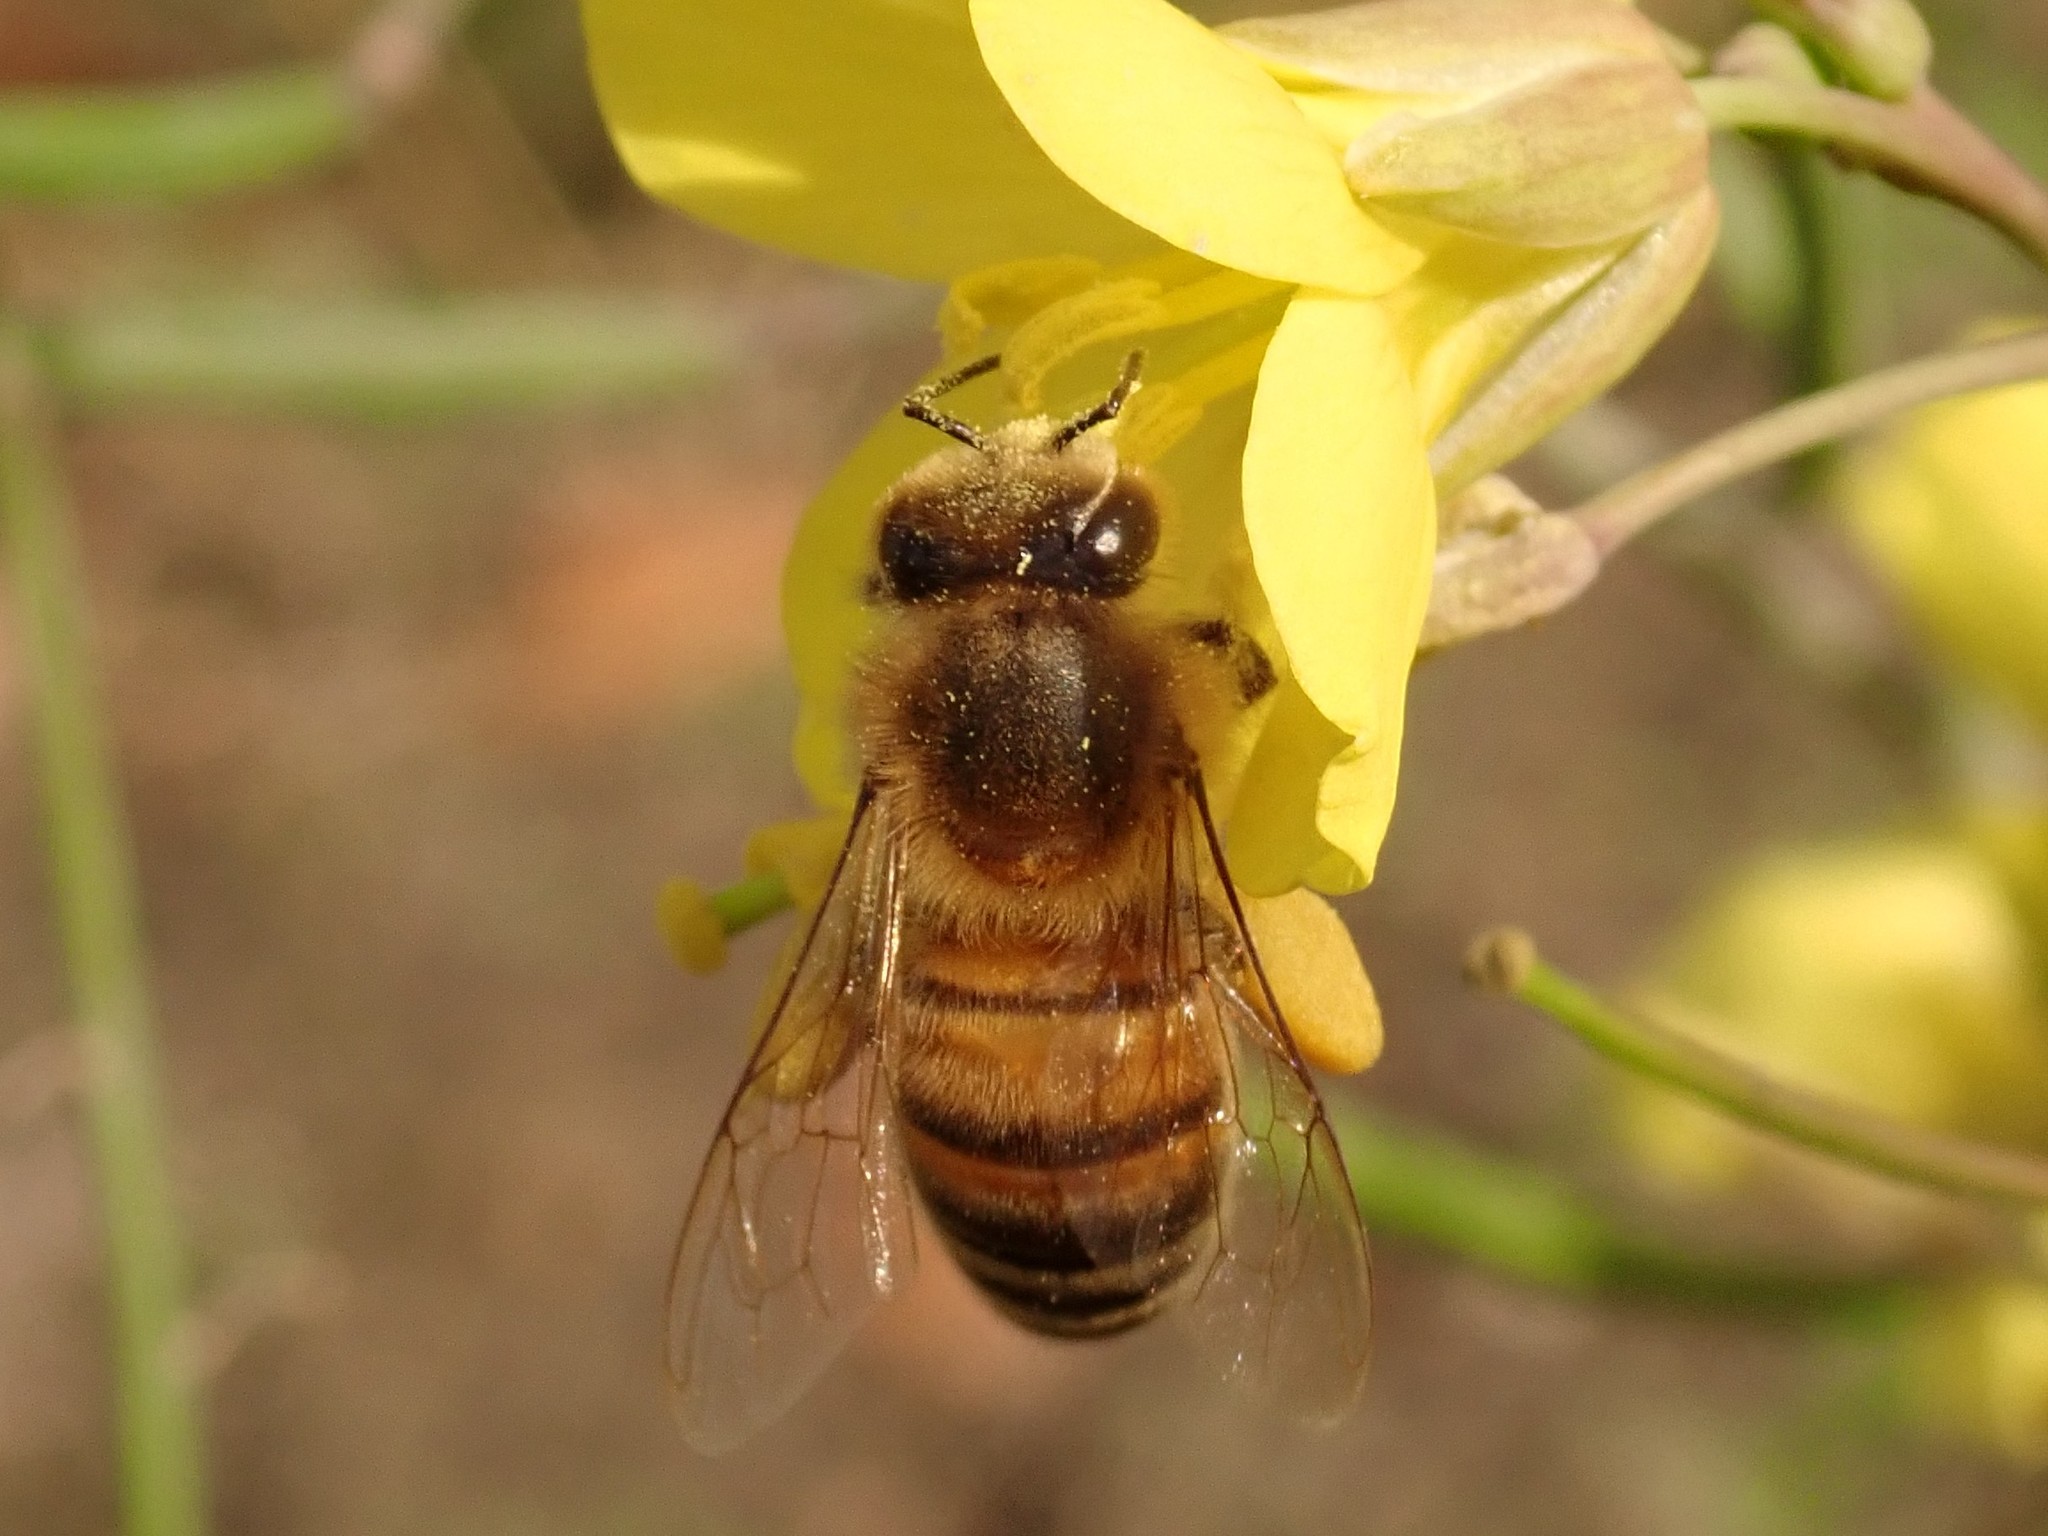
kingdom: Animalia
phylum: Arthropoda
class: Insecta
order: Hymenoptera
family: Apidae
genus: Apis
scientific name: Apis mellifera
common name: Honey bee
